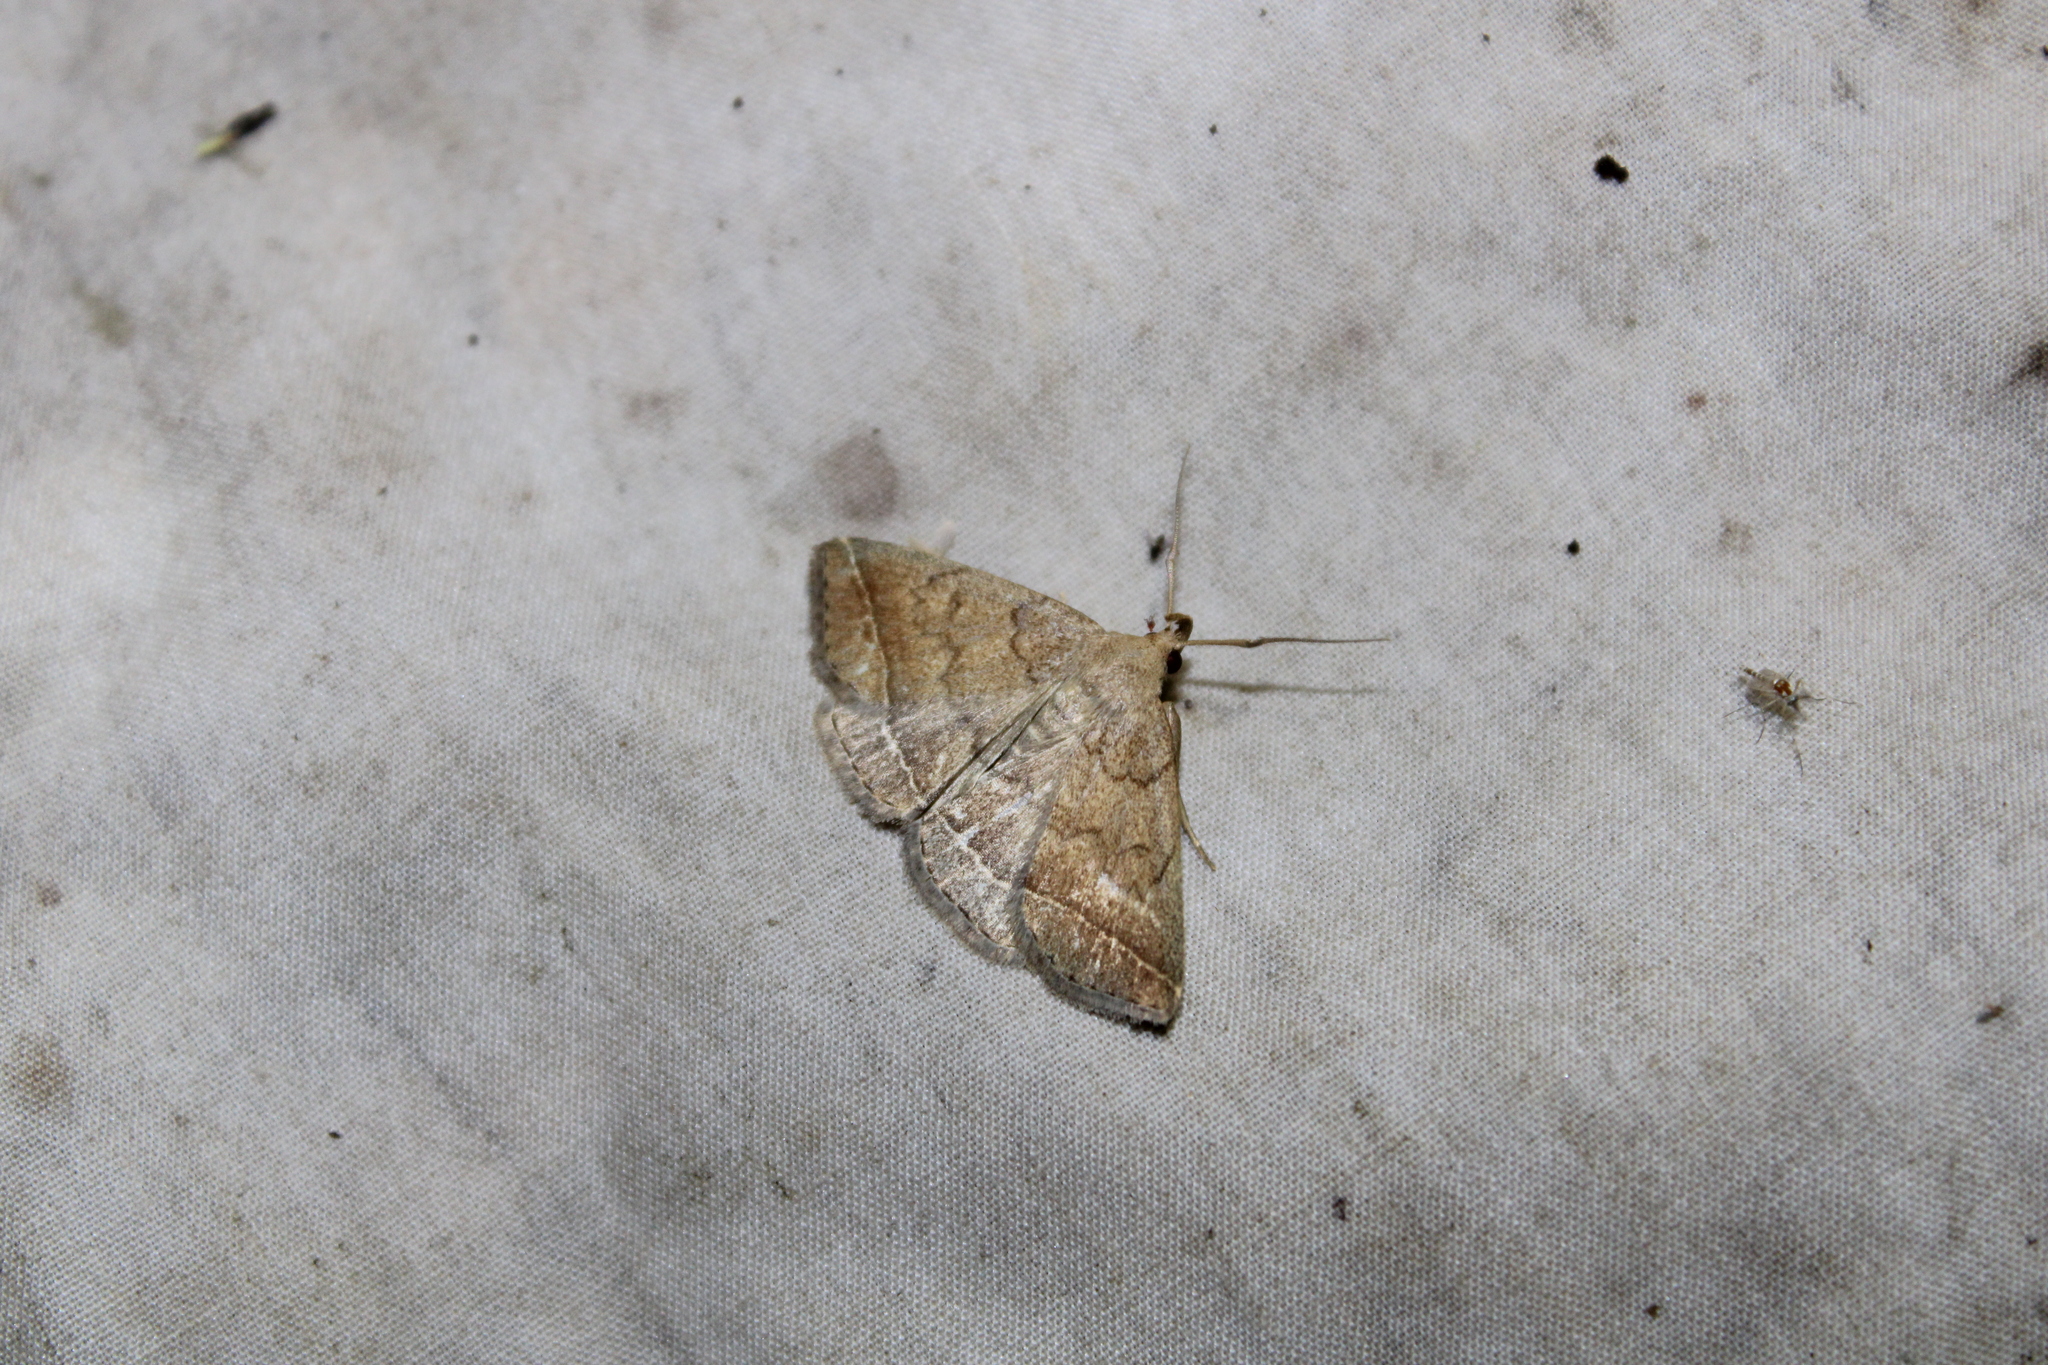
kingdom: Animalia
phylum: Arthropoda
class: Insecta
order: Lepidoptera
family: Erebidae
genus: Zanclognatha
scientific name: Zanclognatha jacchusalis
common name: Yellowish zanclognatha
